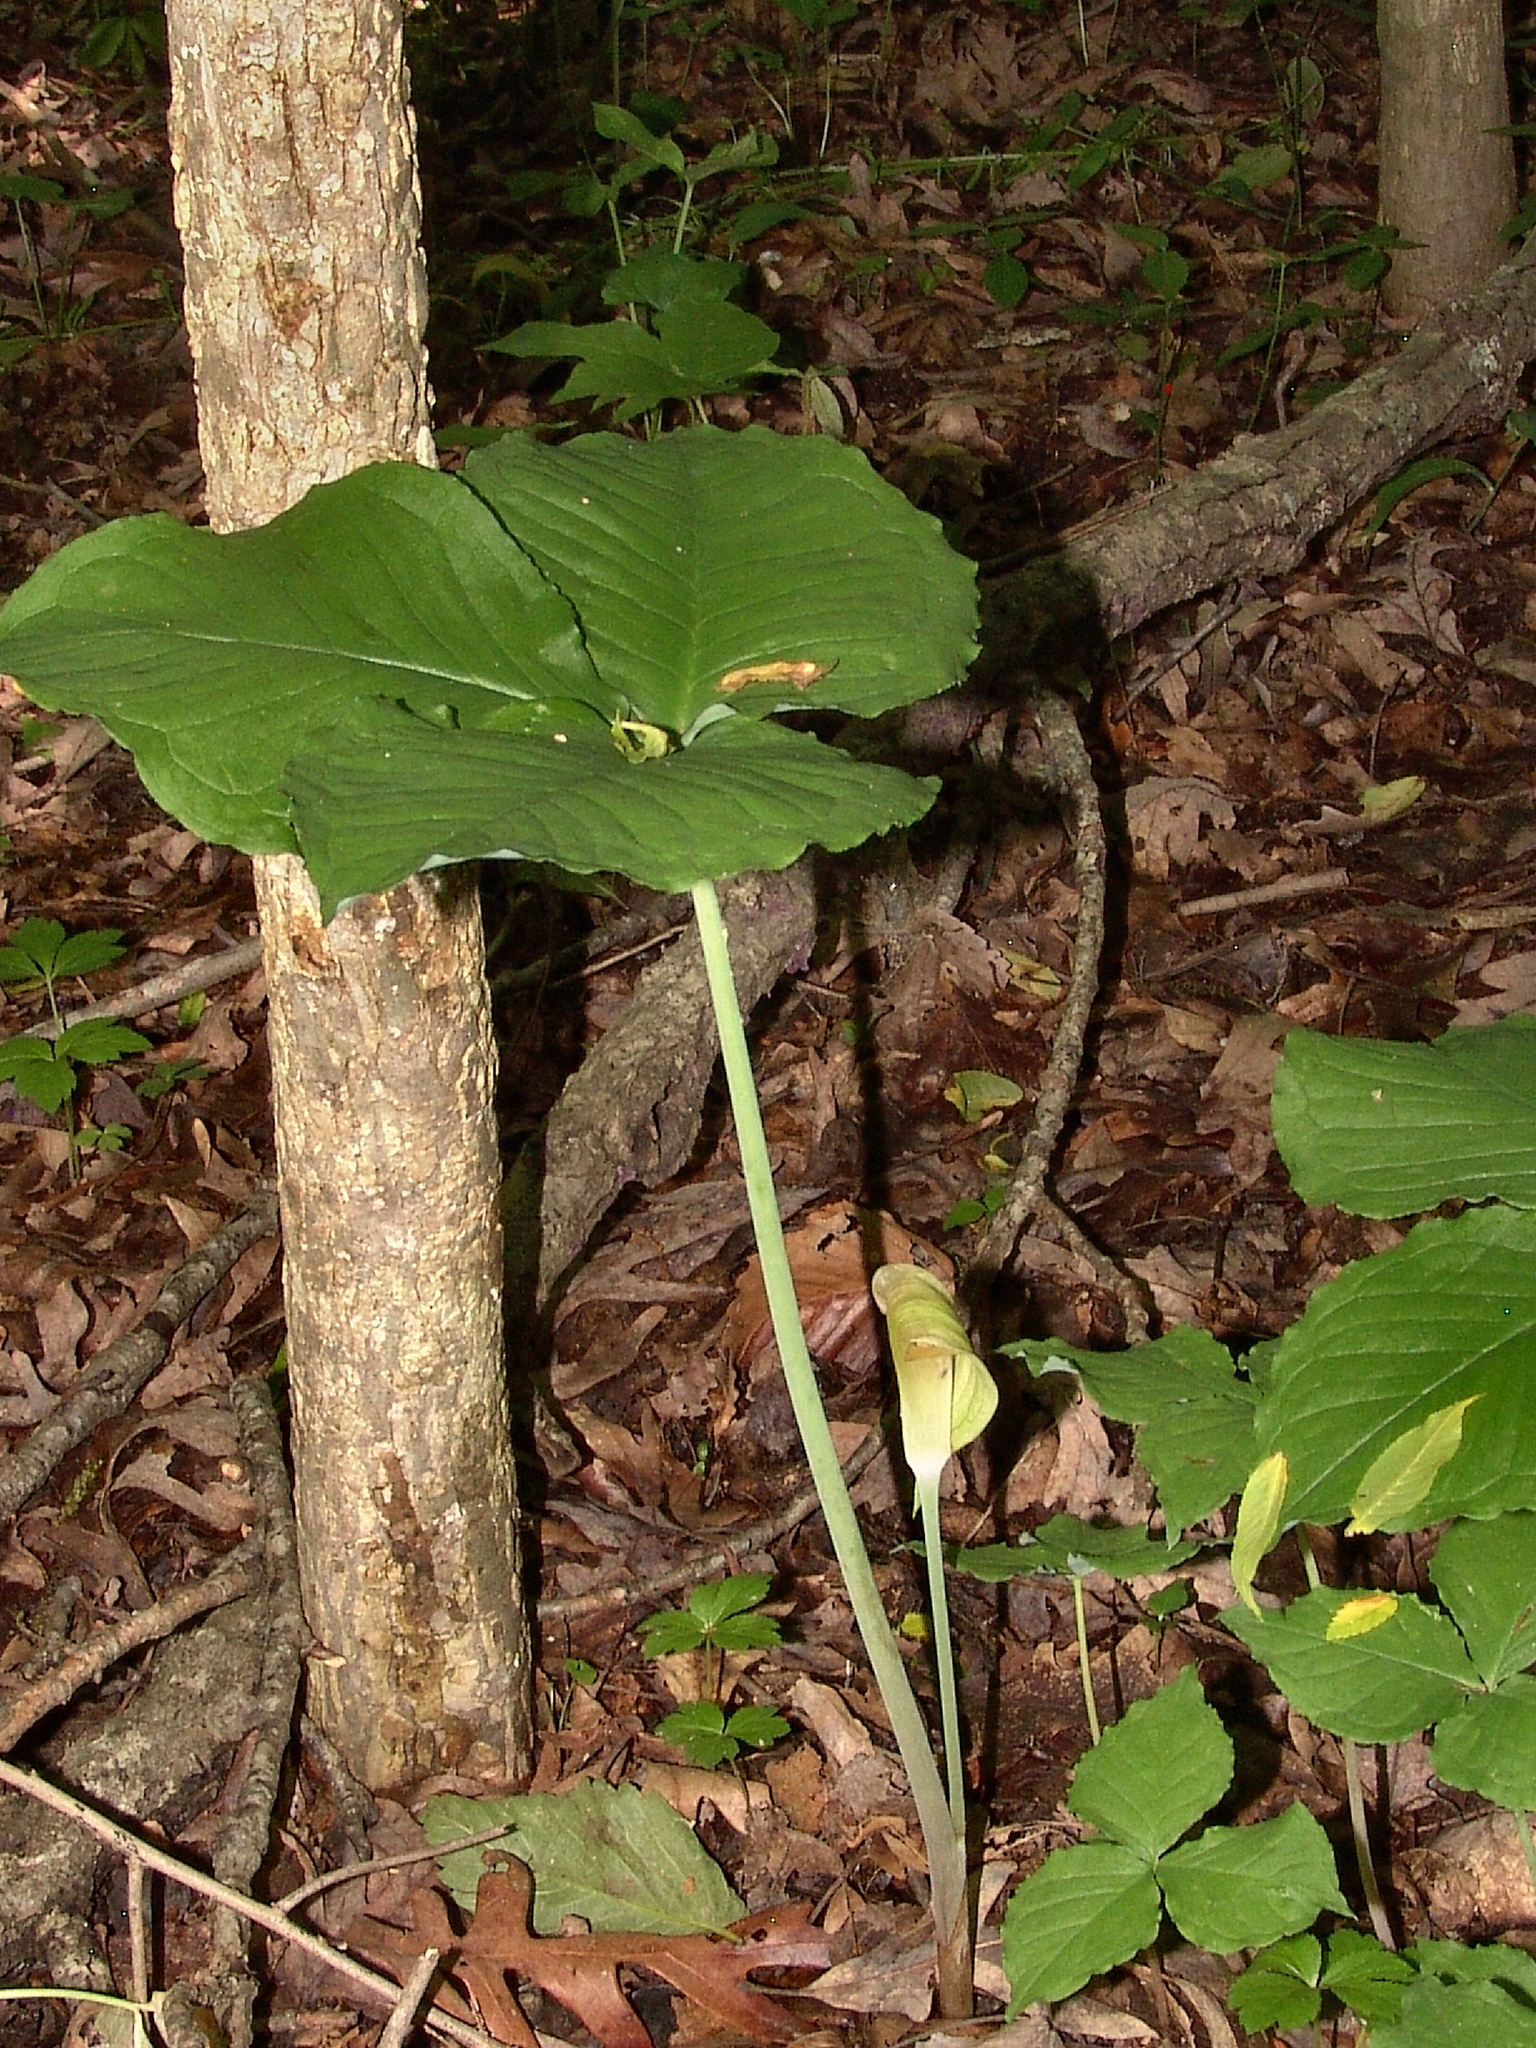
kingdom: Plantae
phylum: Tracheophyta
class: Liliopsida
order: Alismatales
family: Araceae
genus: Arisaema
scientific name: Arisaema triphyllum
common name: Jack-in-the-pulpit
